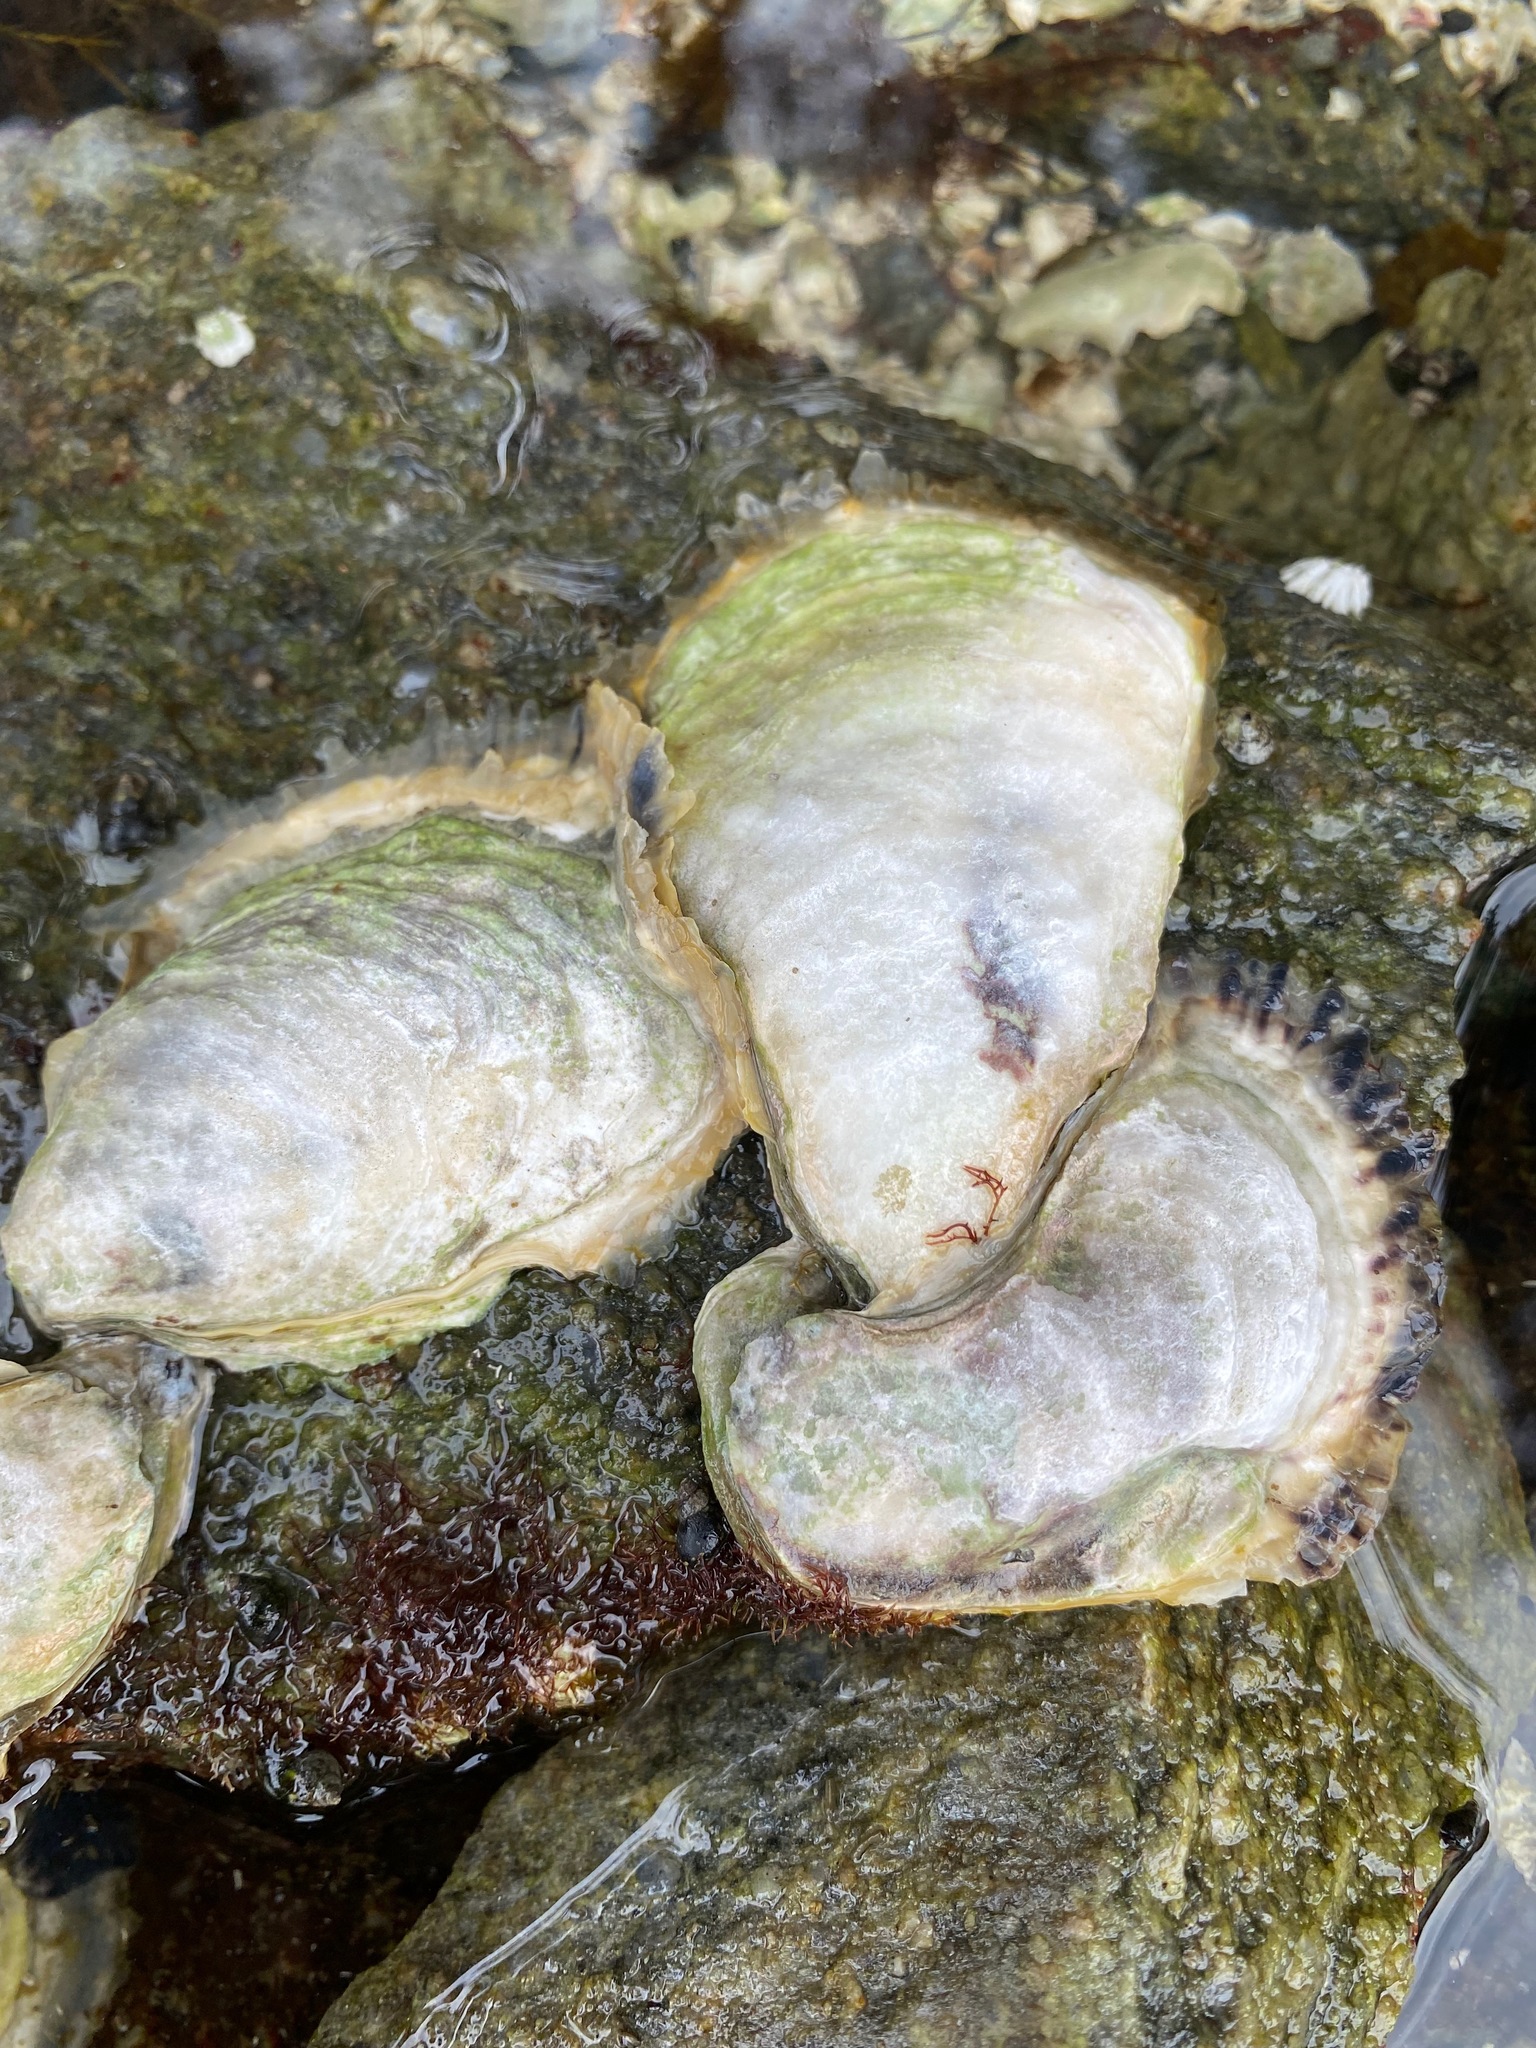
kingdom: Animalia
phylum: Mollusca
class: Bivalvia
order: Ostreida
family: Ostreidae
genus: Magallana
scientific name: Magallana gigas
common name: Pacific oyster
